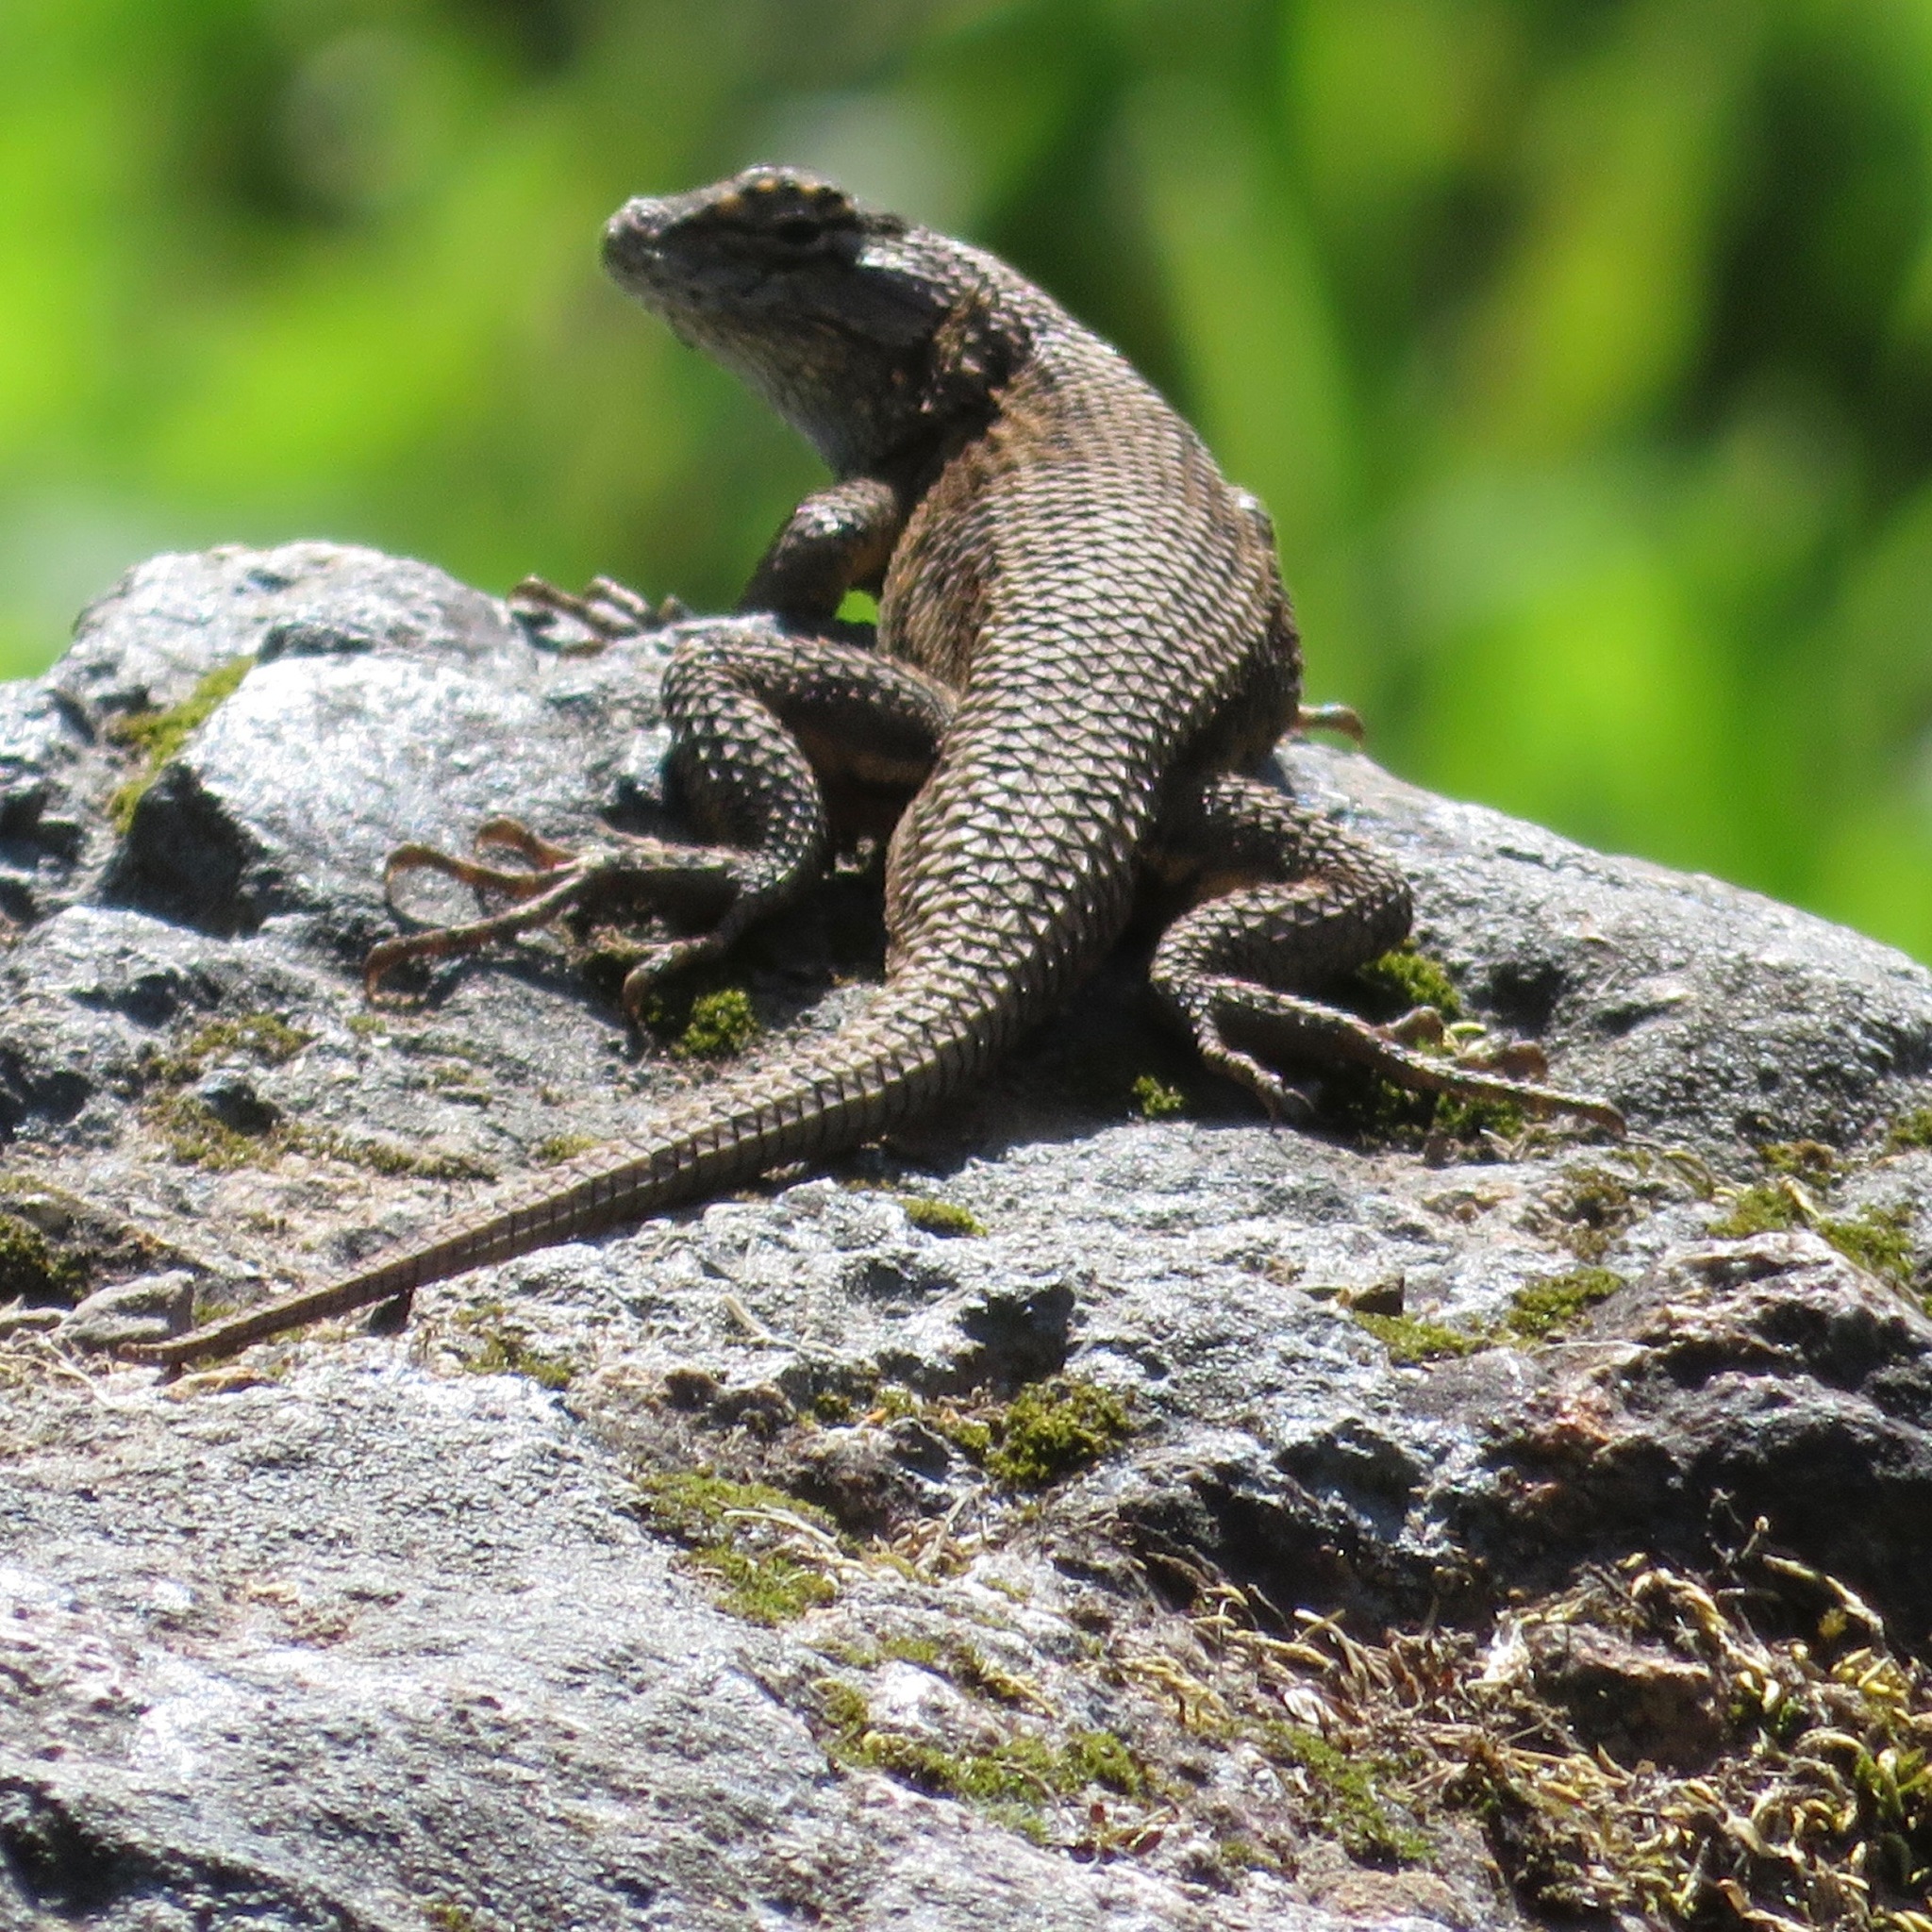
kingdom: Animalia
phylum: Chordata
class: Squamata
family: Phrynosomatidae
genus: Sceloporus
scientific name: Sceloporus occidentalis
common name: Western fence lizard
